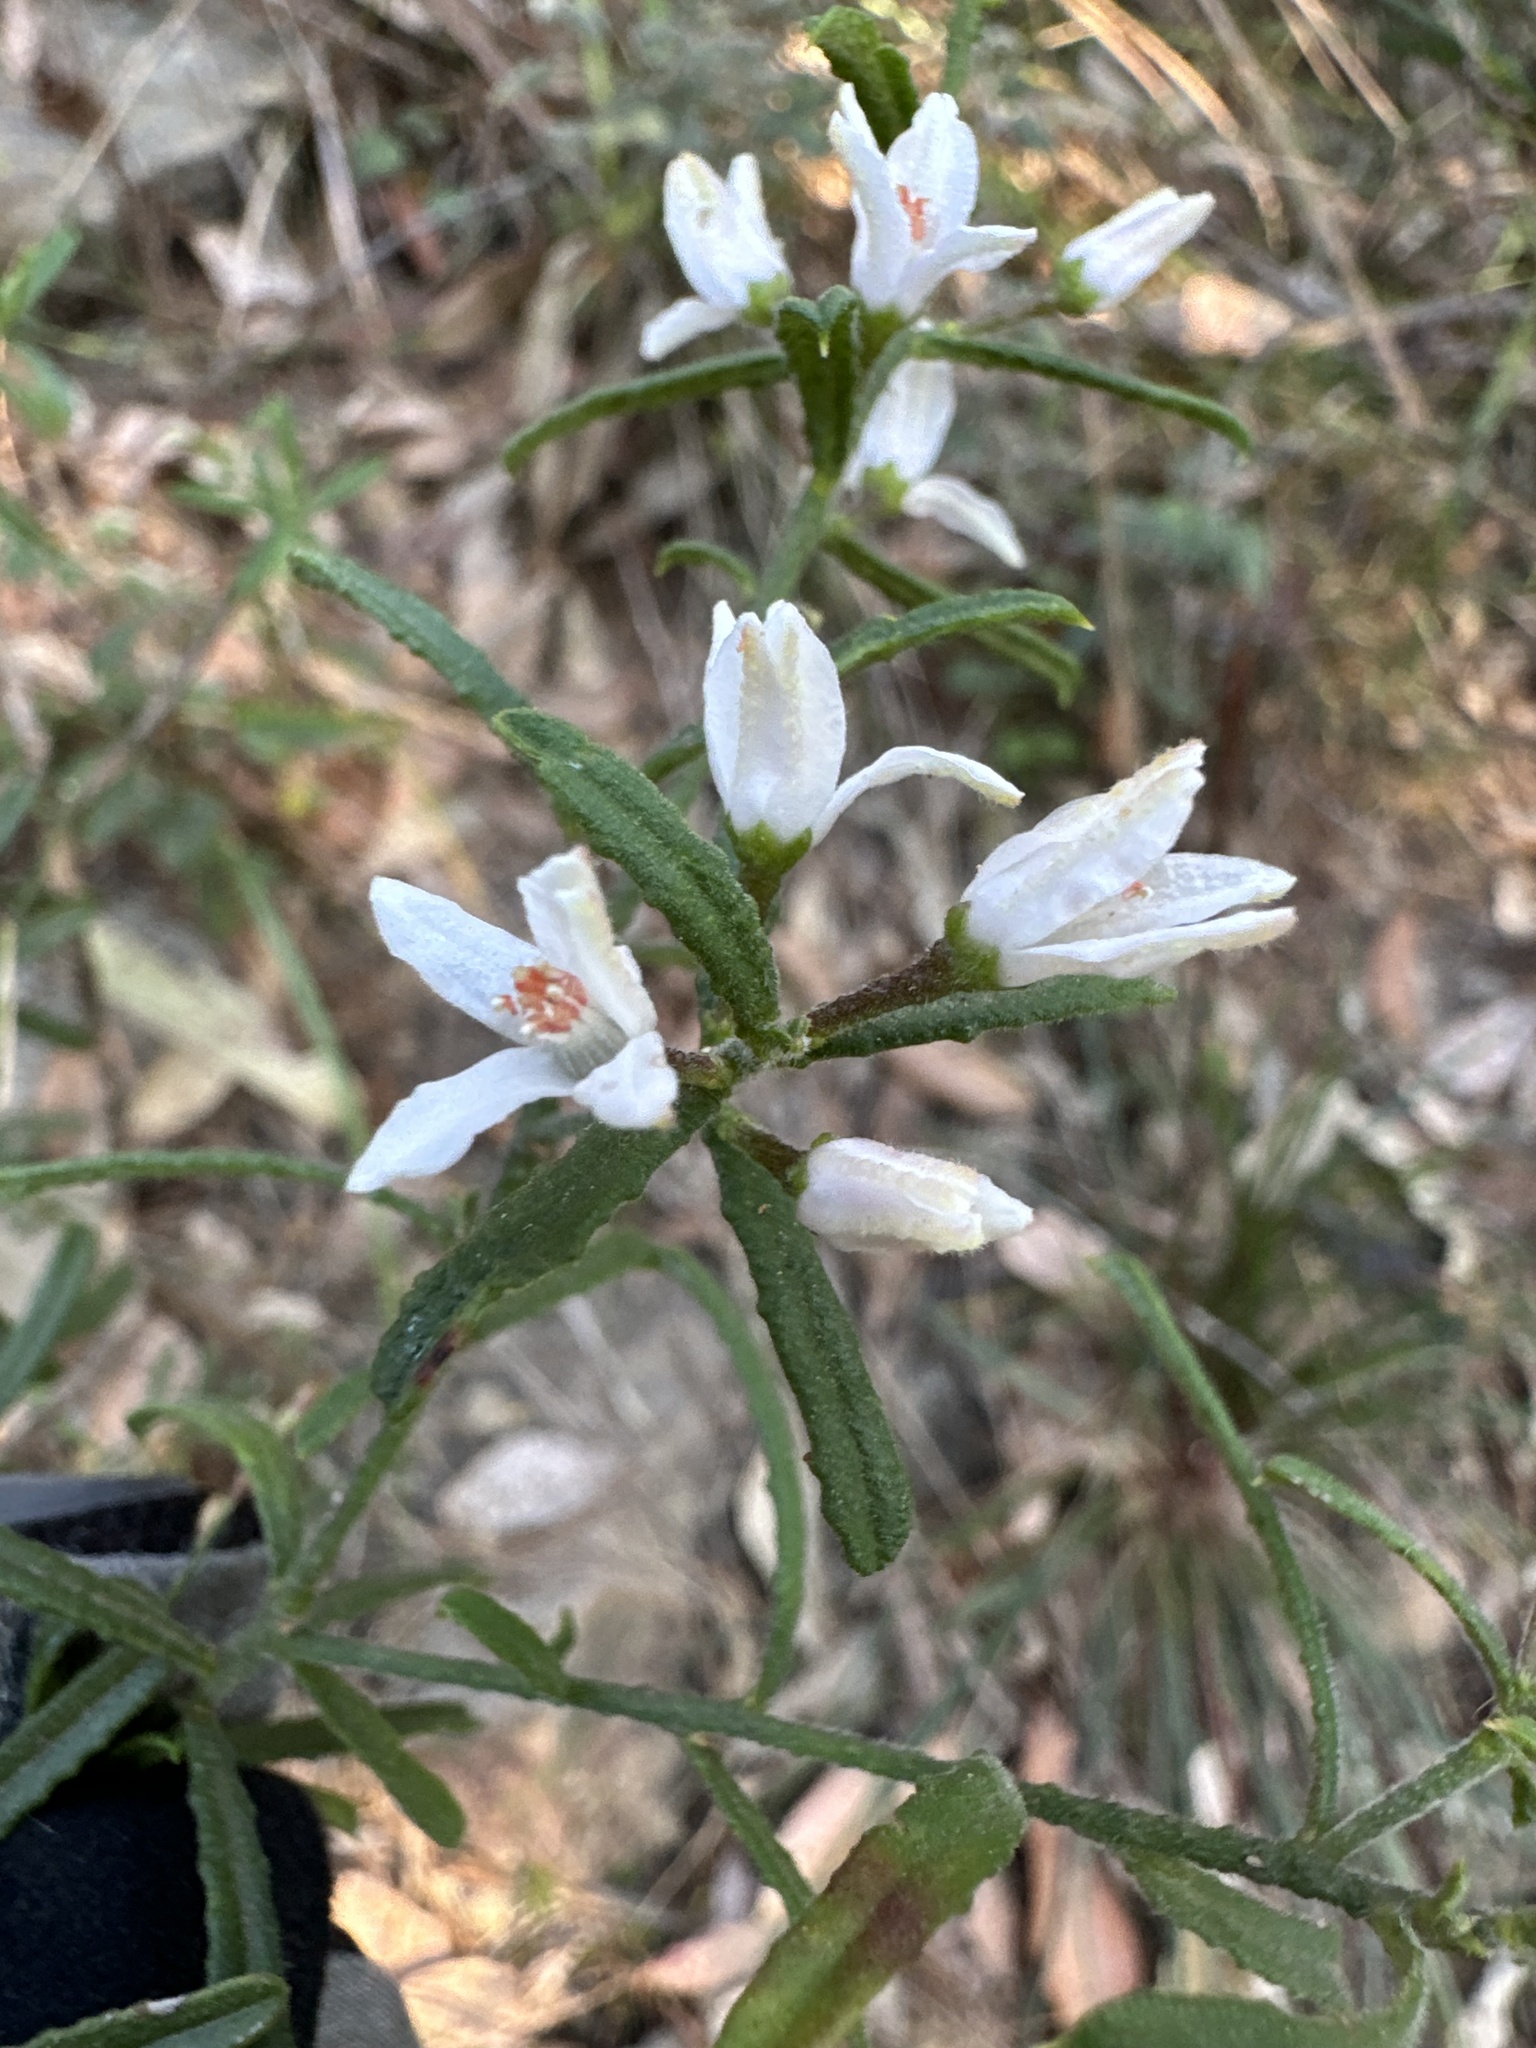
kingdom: Plantae
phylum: Tracheophyta
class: Magnoliopsida
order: Sapindales
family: Rutaceae
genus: Philotheca
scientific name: Philotheca hispidula
